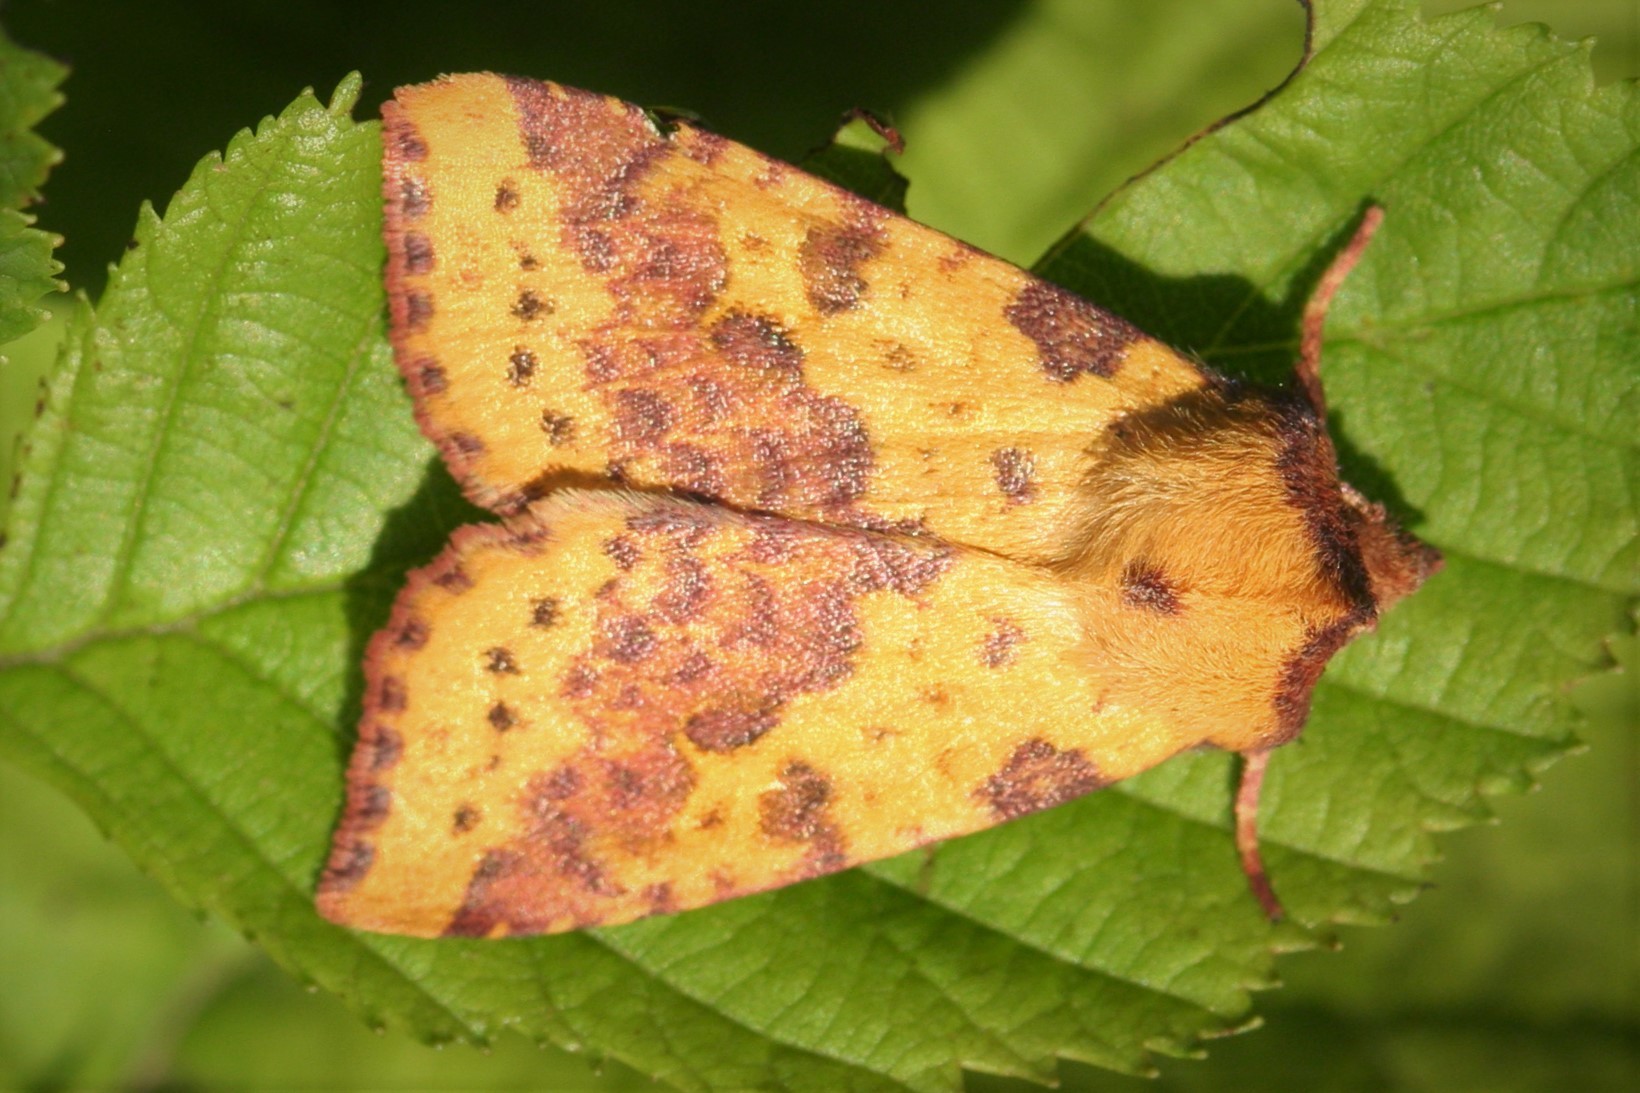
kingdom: Animalia
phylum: Arthropoda
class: Insecta
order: Lepidoptera
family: Noctuidae
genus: Xanthia
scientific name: Xanthia togata
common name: Pink-barred sallow
